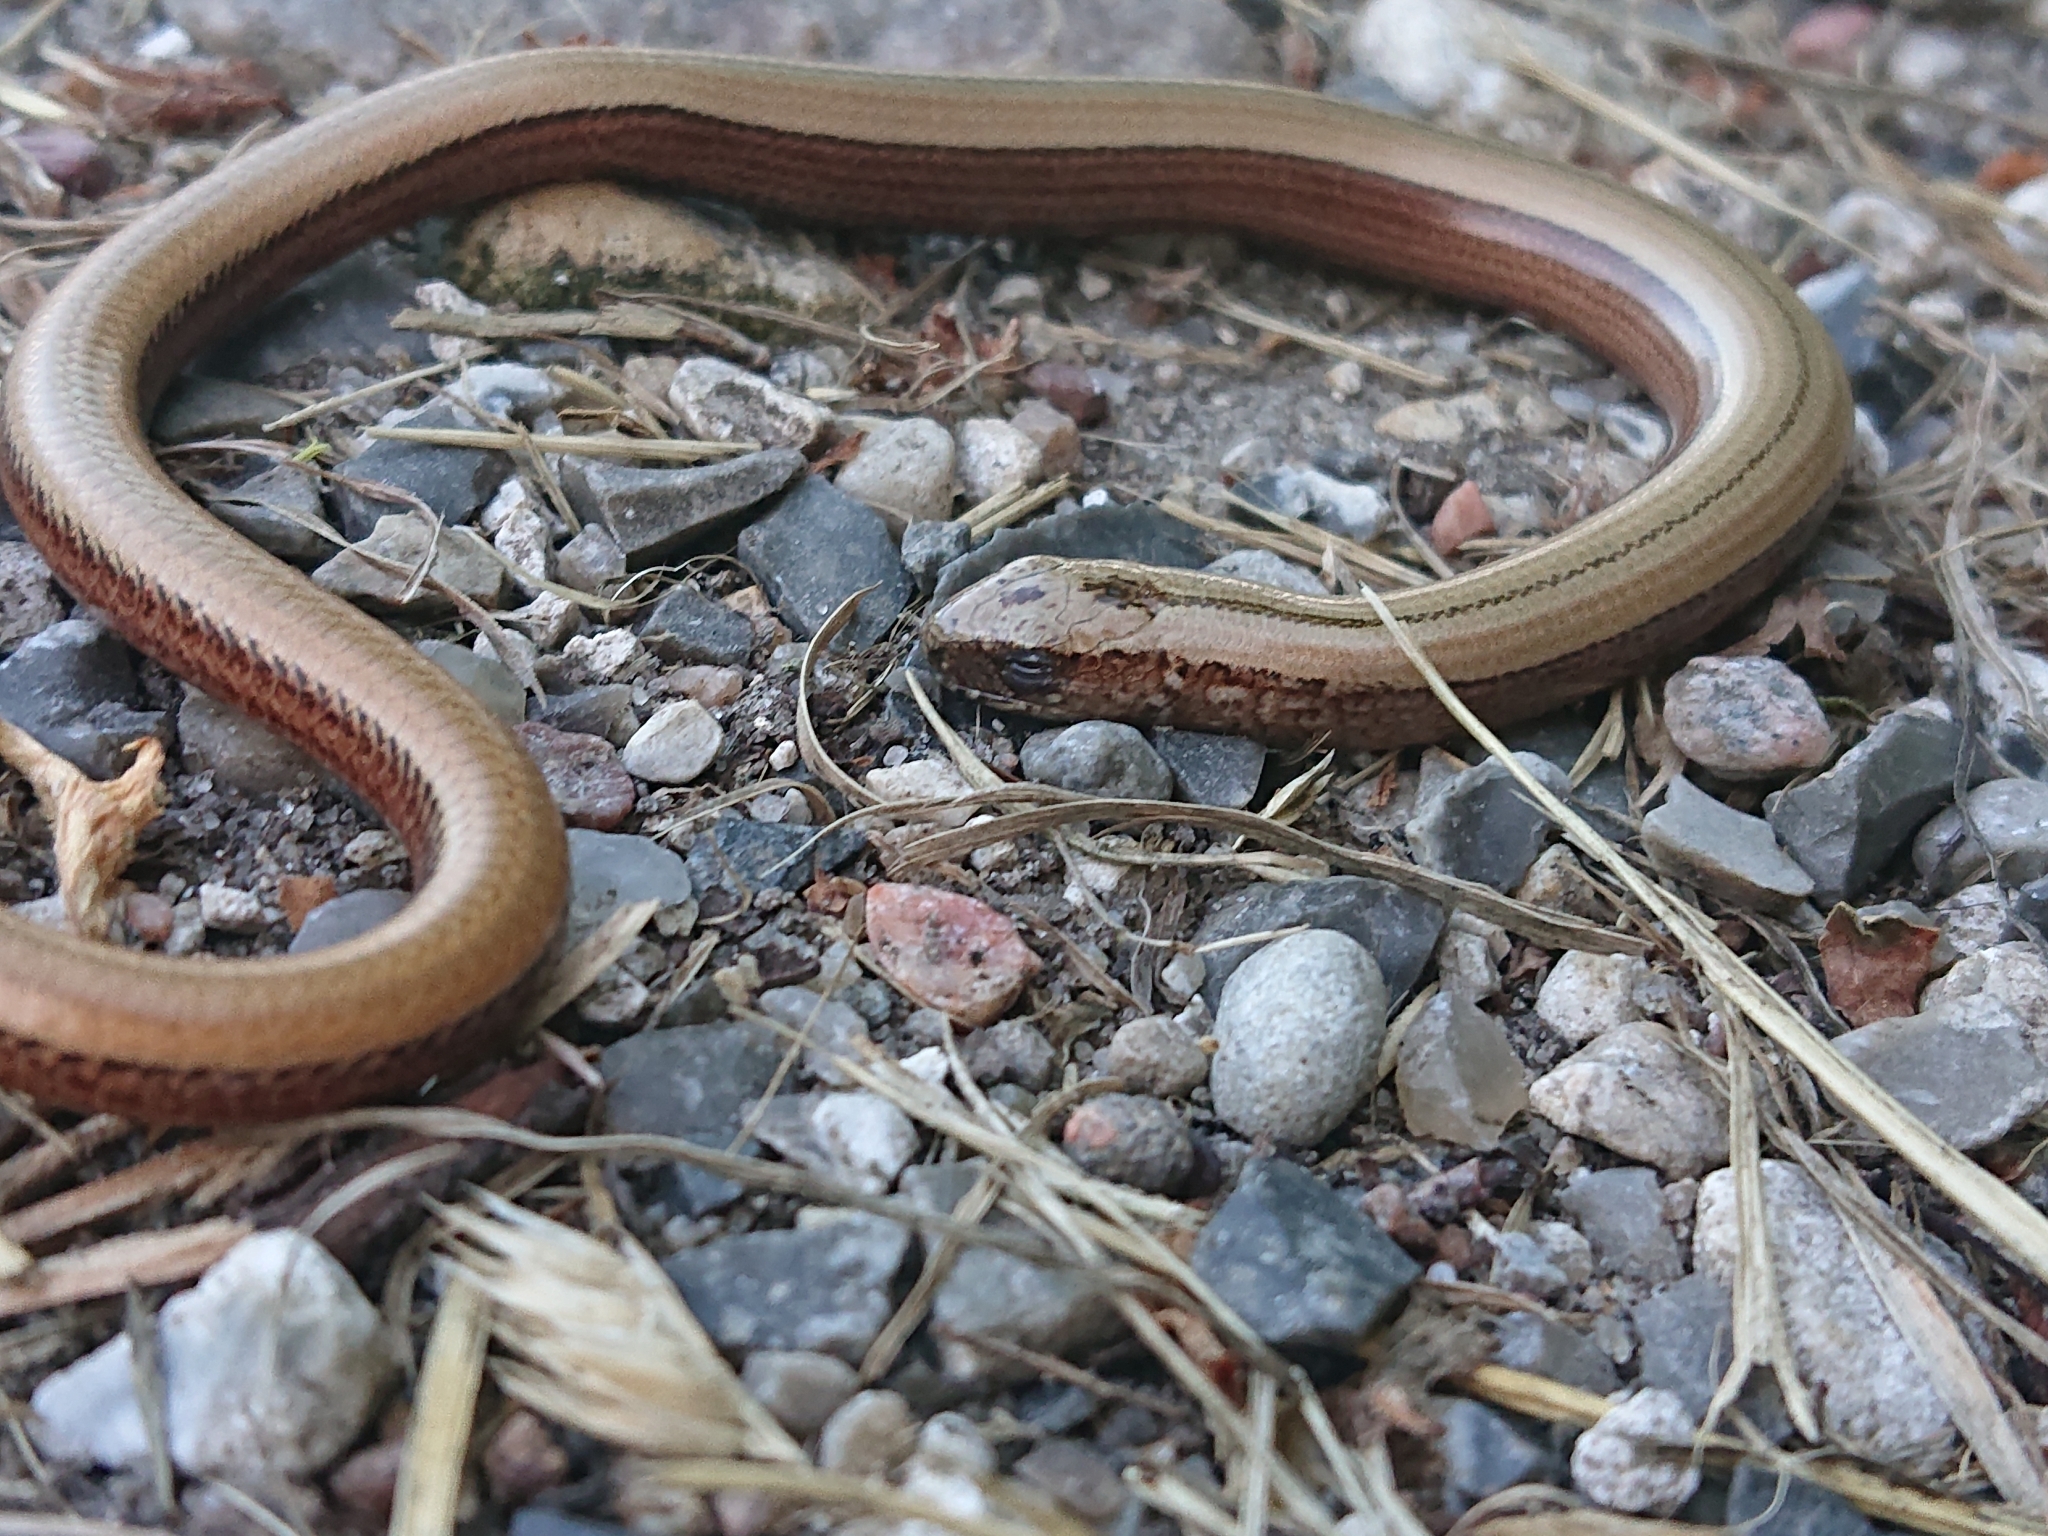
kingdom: Animalia
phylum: Chordata
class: Squamata
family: Anguidae
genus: Anguis
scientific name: Anguis fragilis
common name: Slow worm
